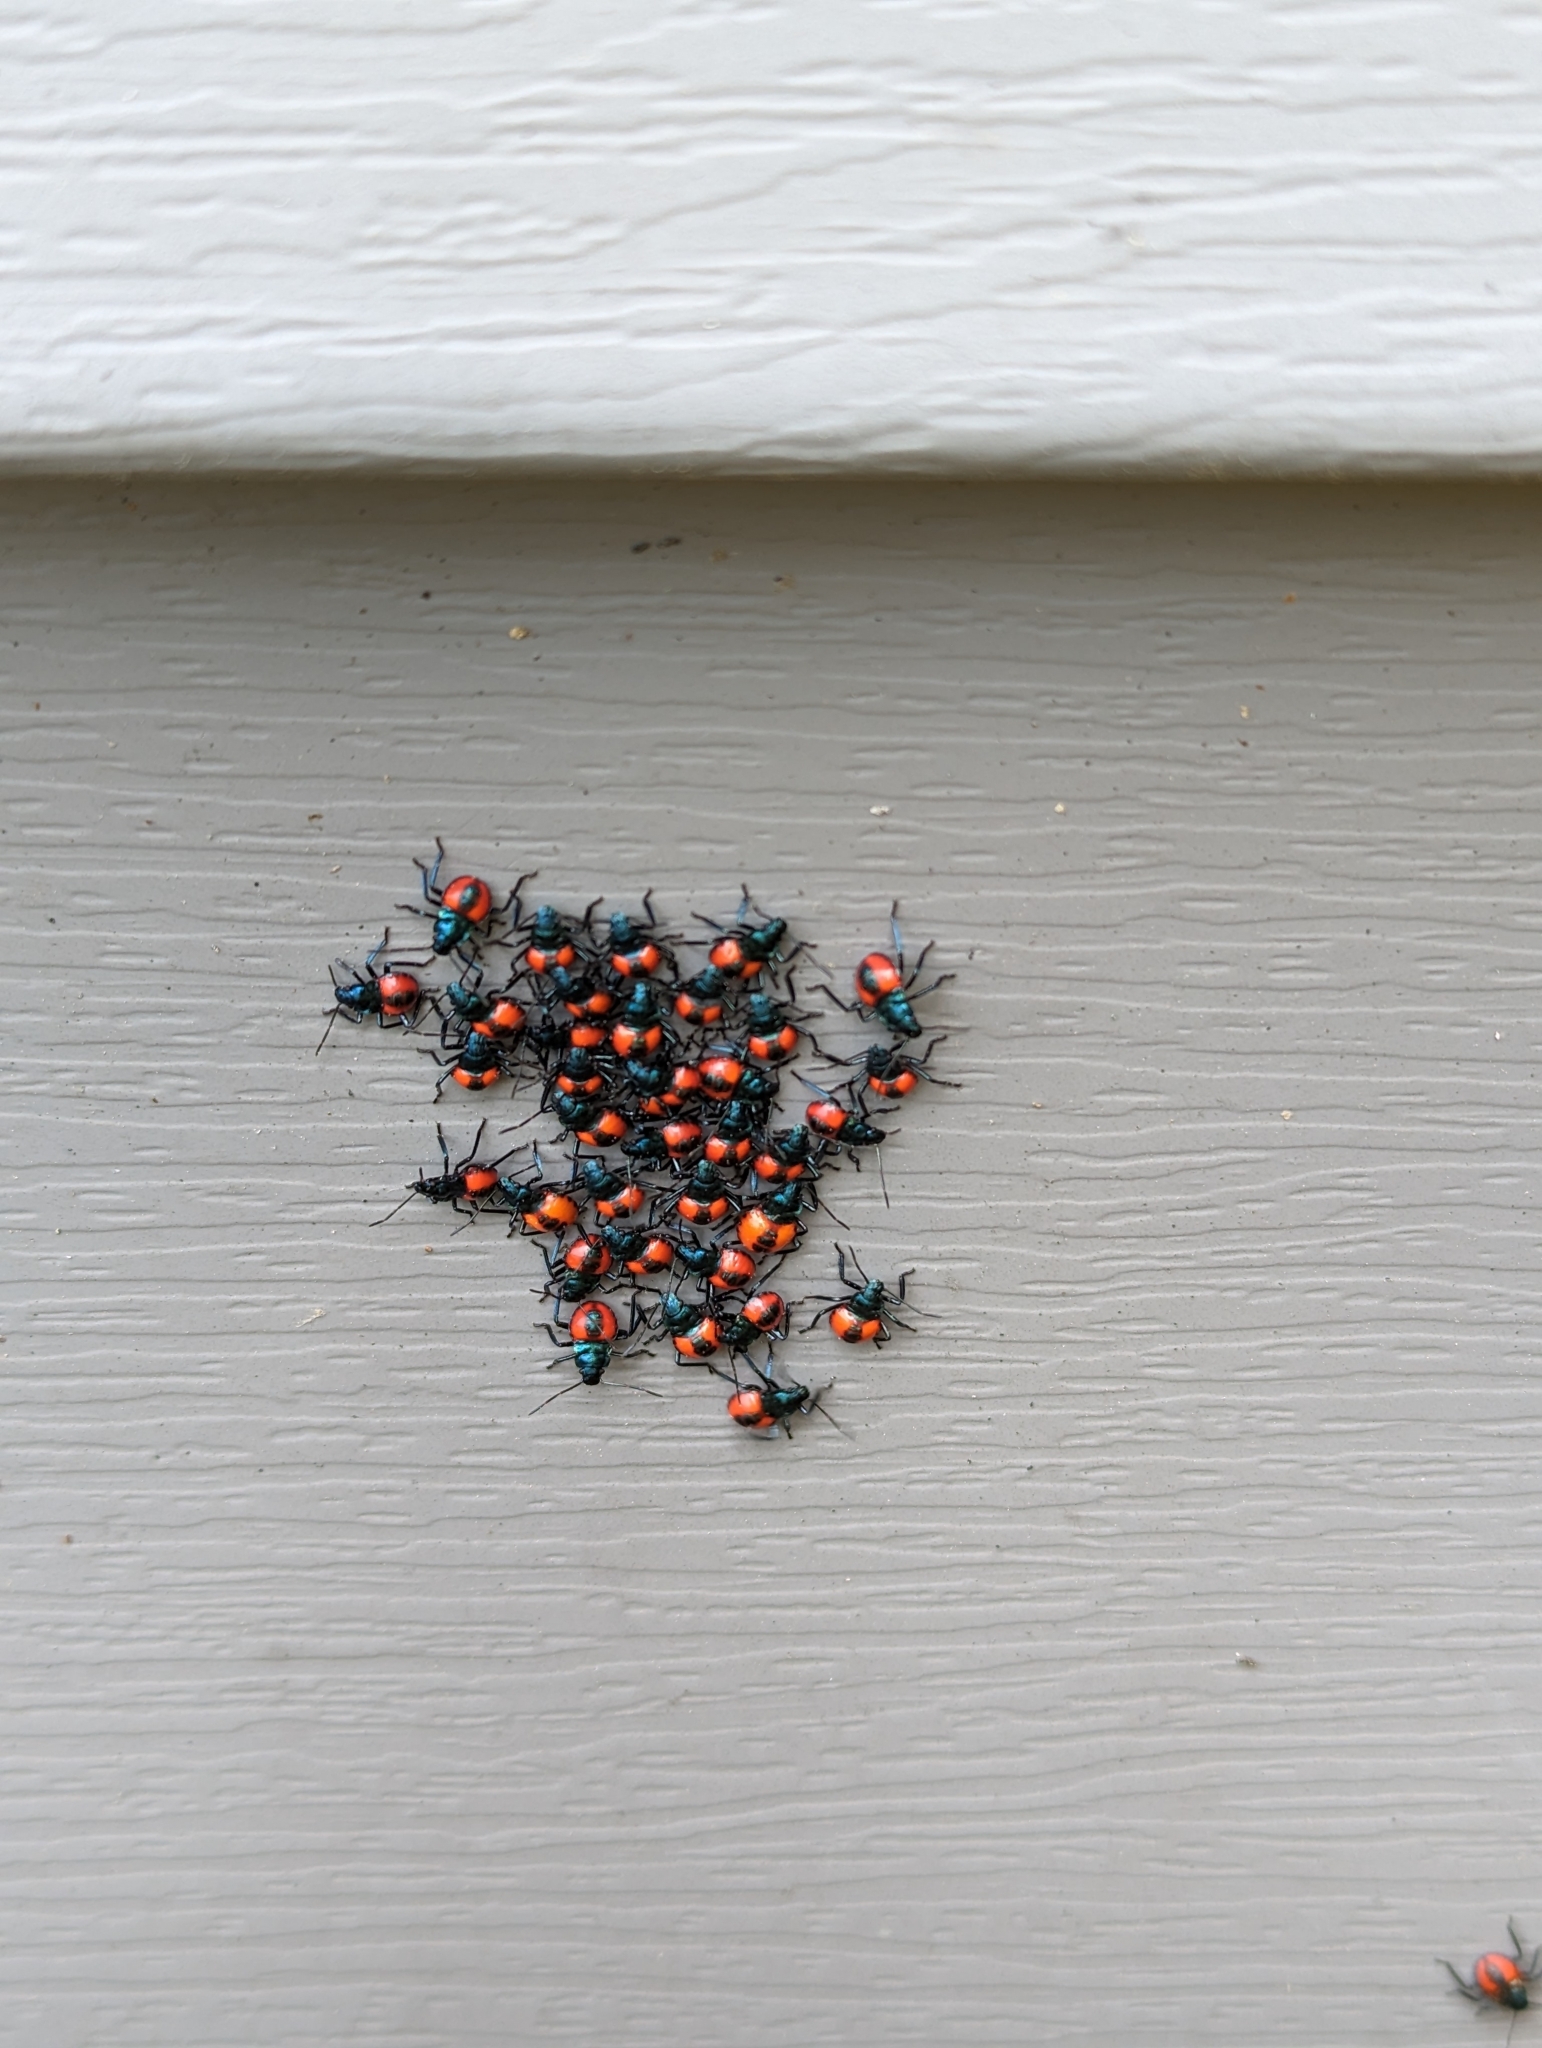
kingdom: Animalia
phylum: Arthropoda
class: Insecta
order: Hemiptera
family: Pentatomidae
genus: Euthyrhynchus
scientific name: Euthyrhynchus floridanus
